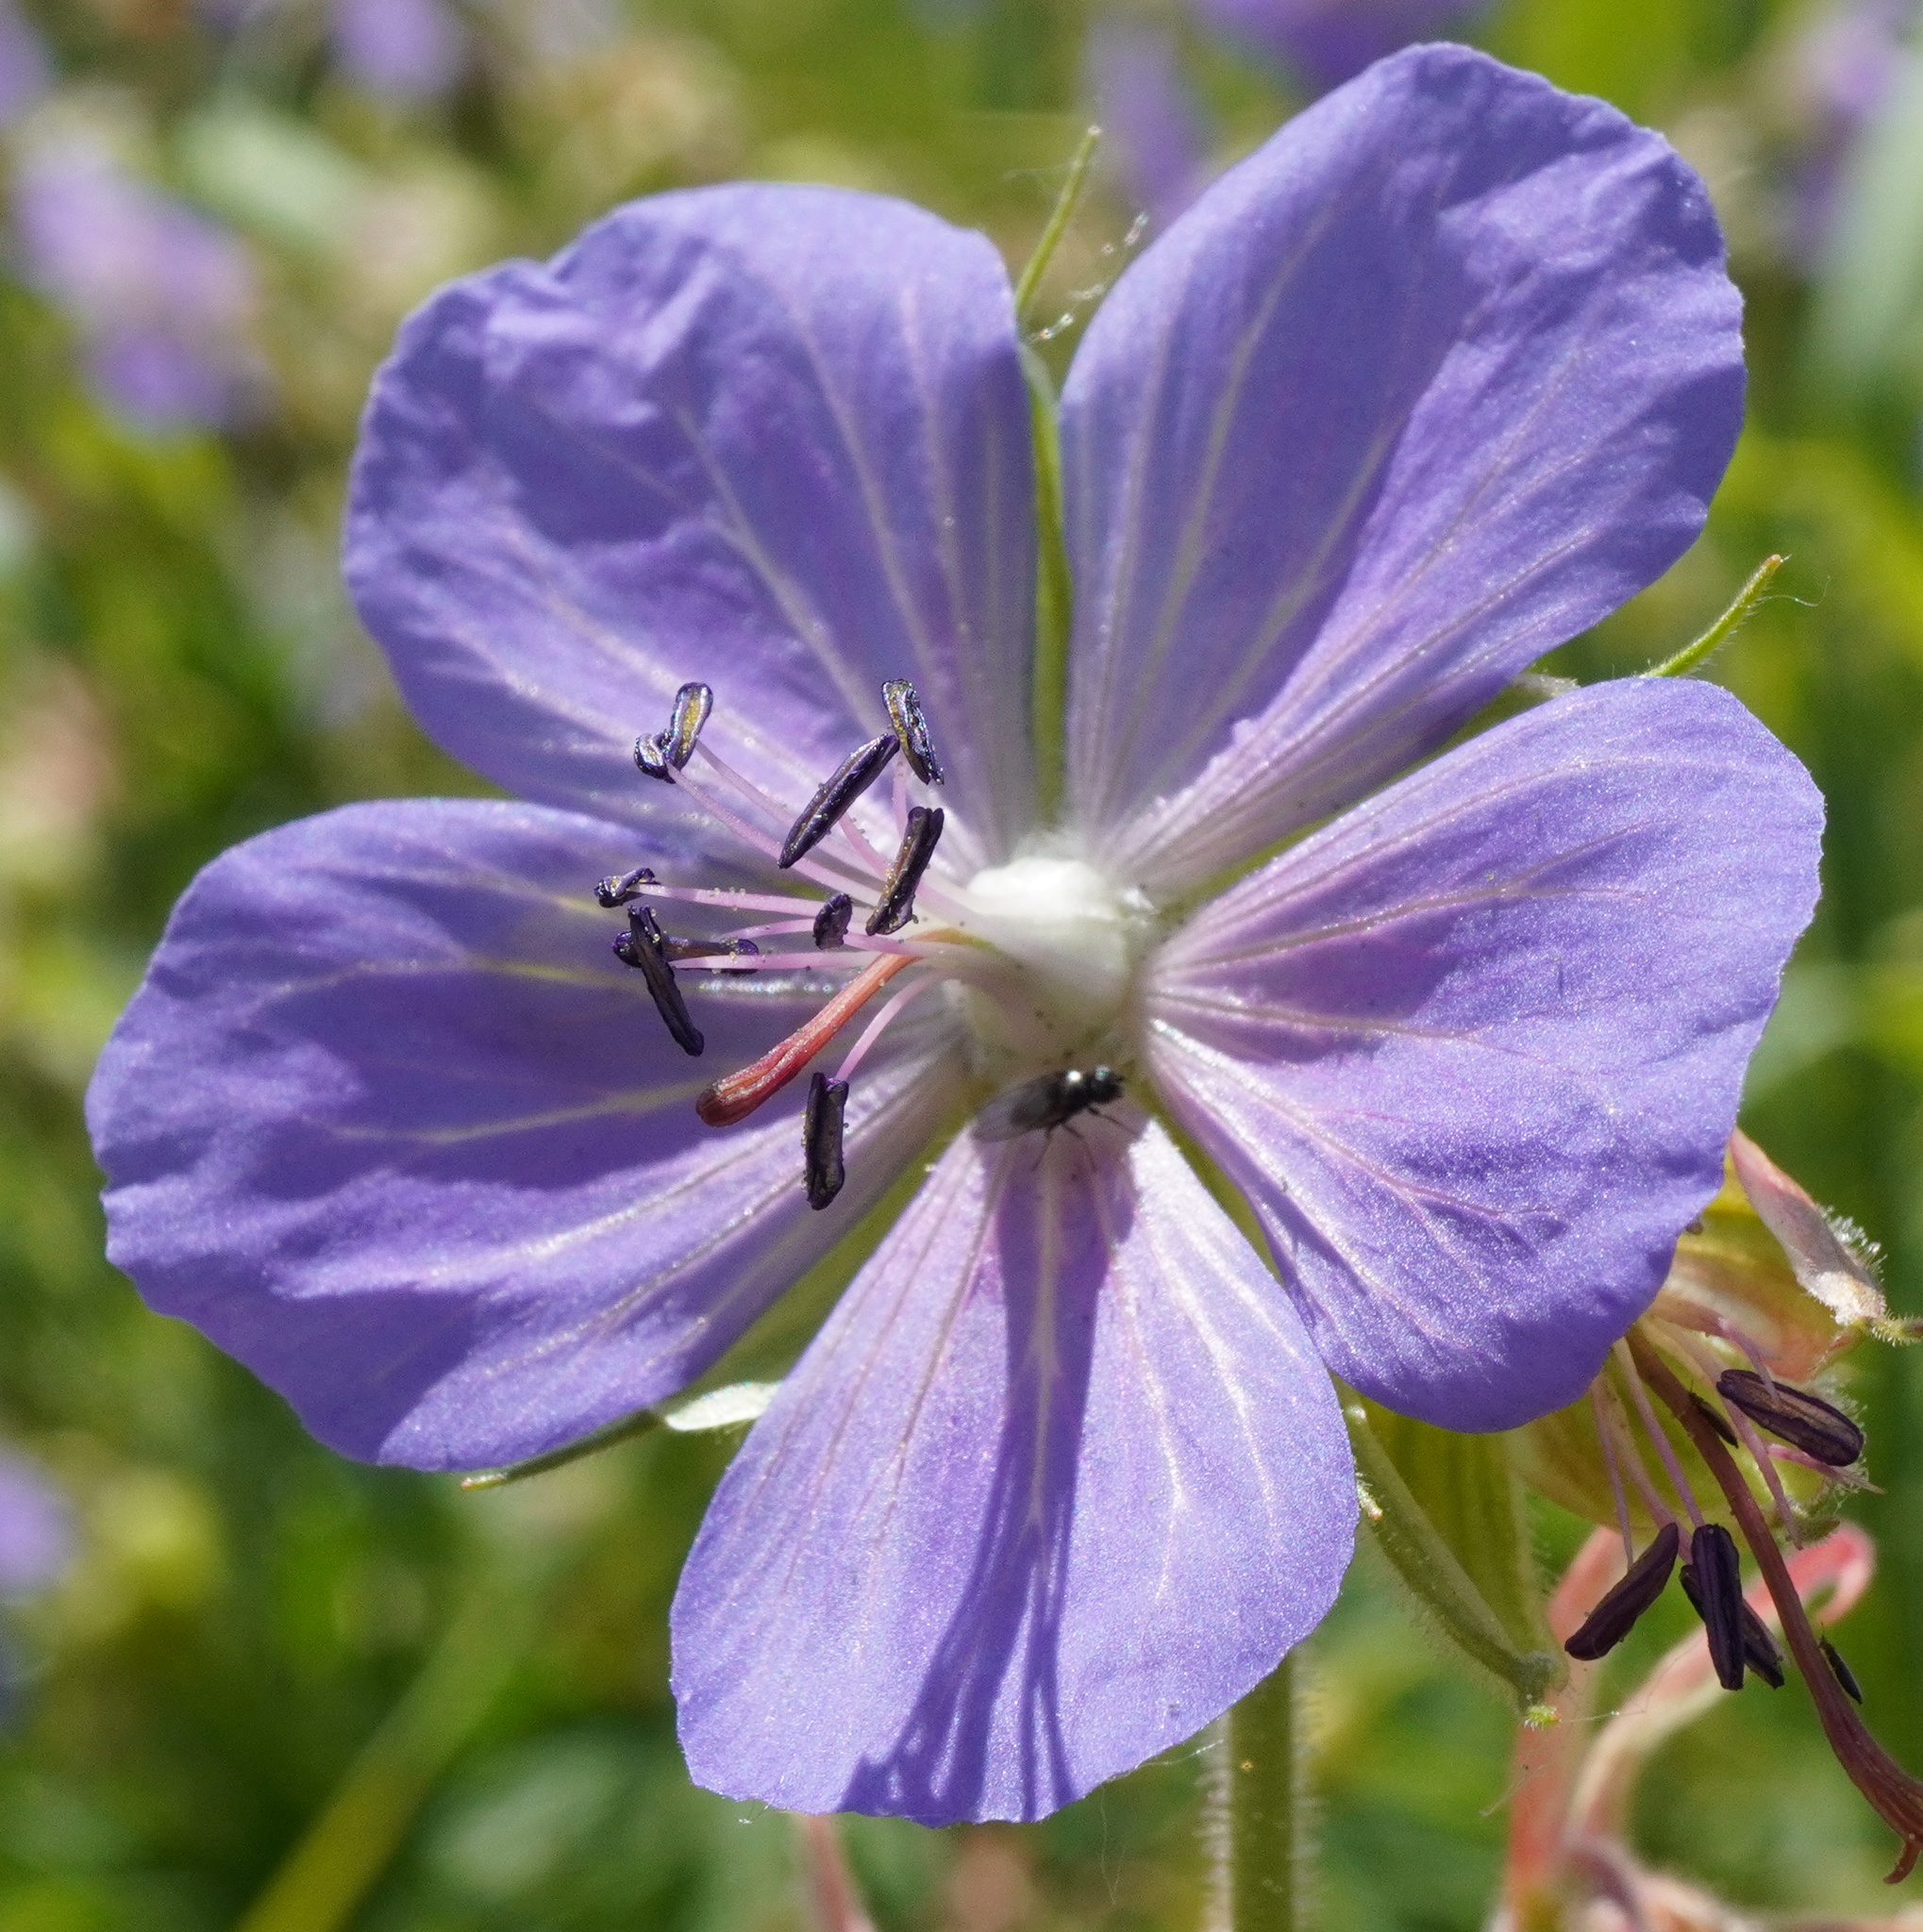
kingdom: Plantae
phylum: Tracheophyta
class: Magnoliopsida
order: Geraniales
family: Geraniaceae
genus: Geranium
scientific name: Geranium pratense
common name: Meadow crane's-bill
